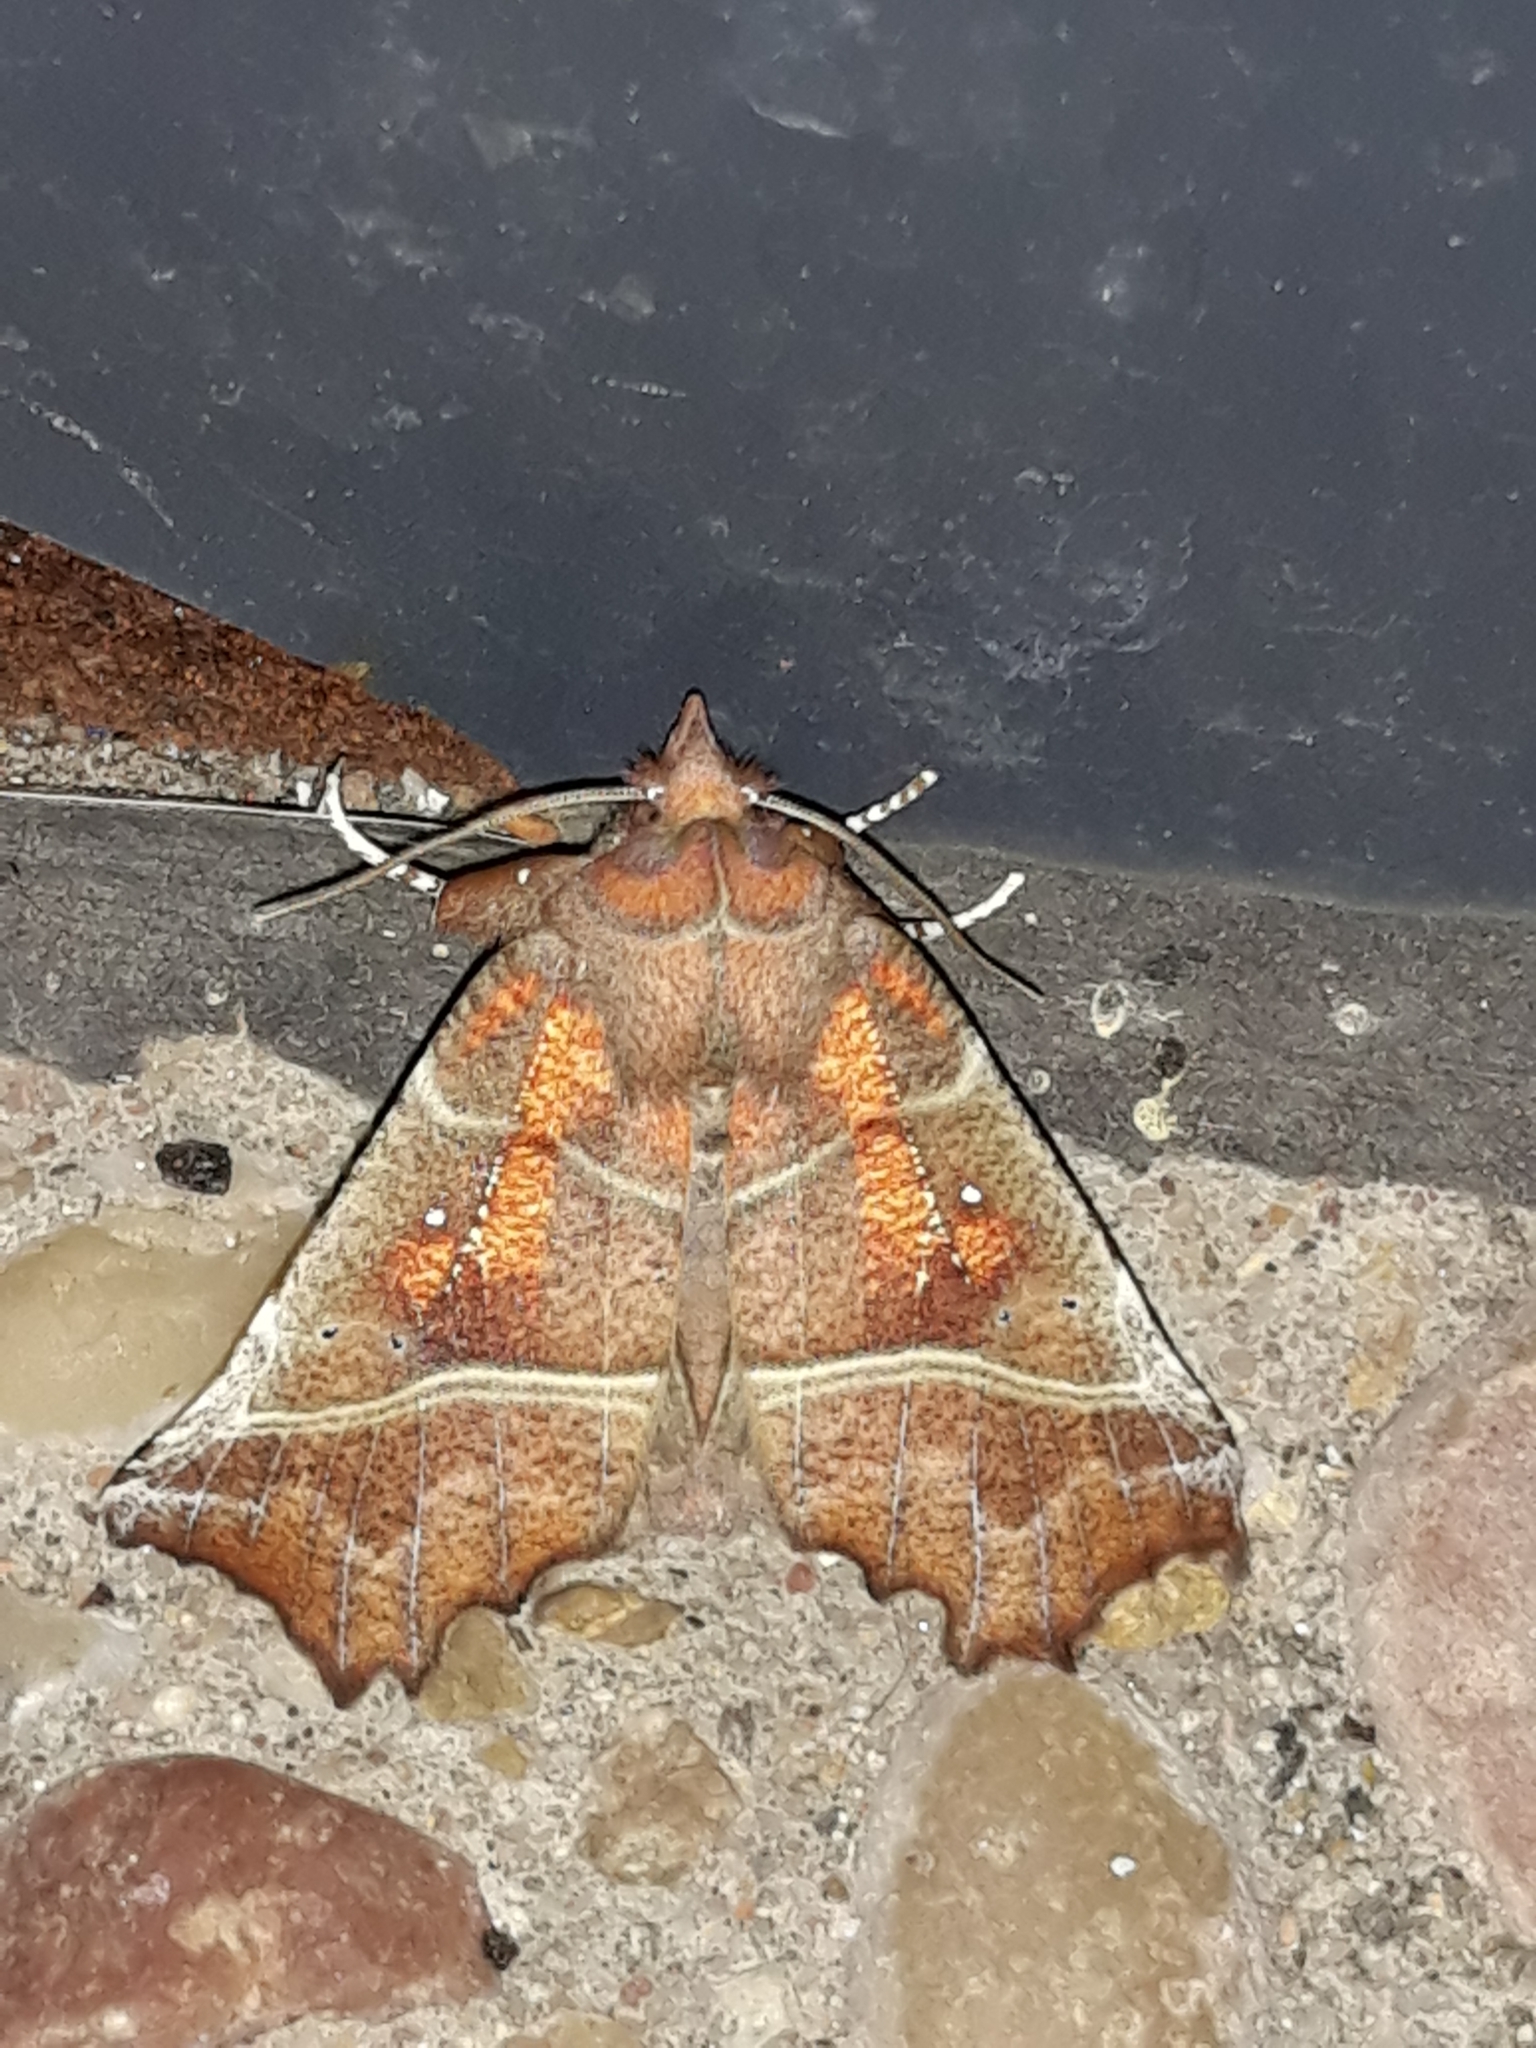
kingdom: Animalia
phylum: Arthropoda
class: Insecta
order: Lepidoptera
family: Erebidae
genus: Scoliopteryx
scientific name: Scoliopteryx libatrix
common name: Herald
